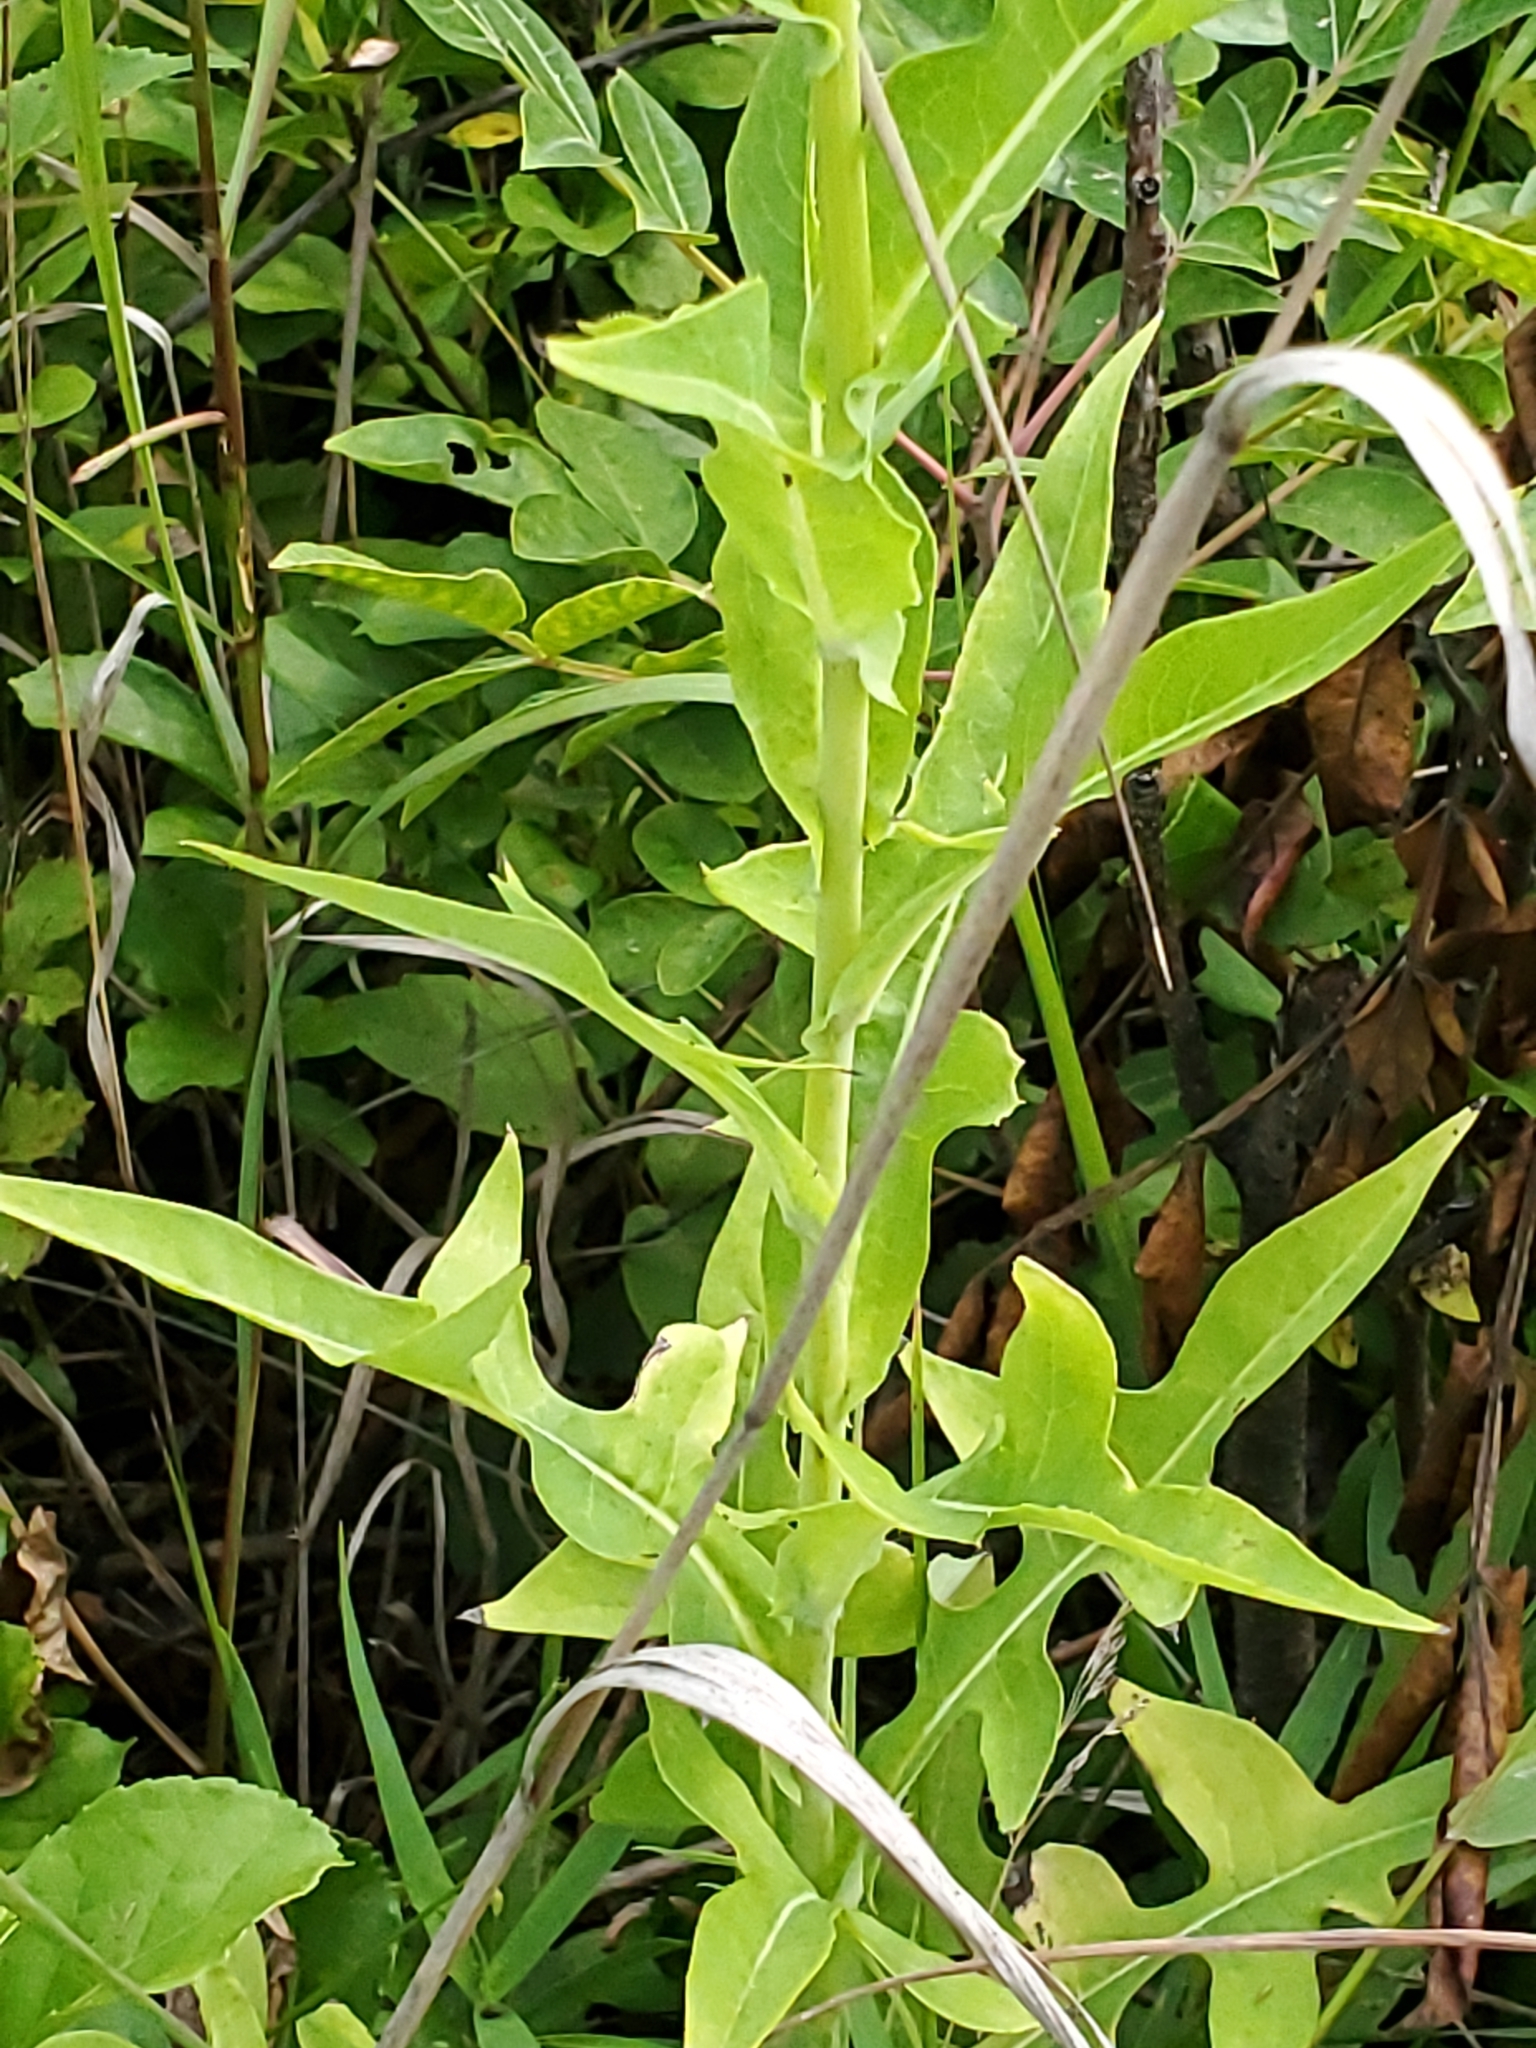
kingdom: Plantae
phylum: Tracheophyta
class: Magnoliopsida
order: Asterales
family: Asteraceae
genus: Lactuca
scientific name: Lactuca canadensis
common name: Canada lettuce
